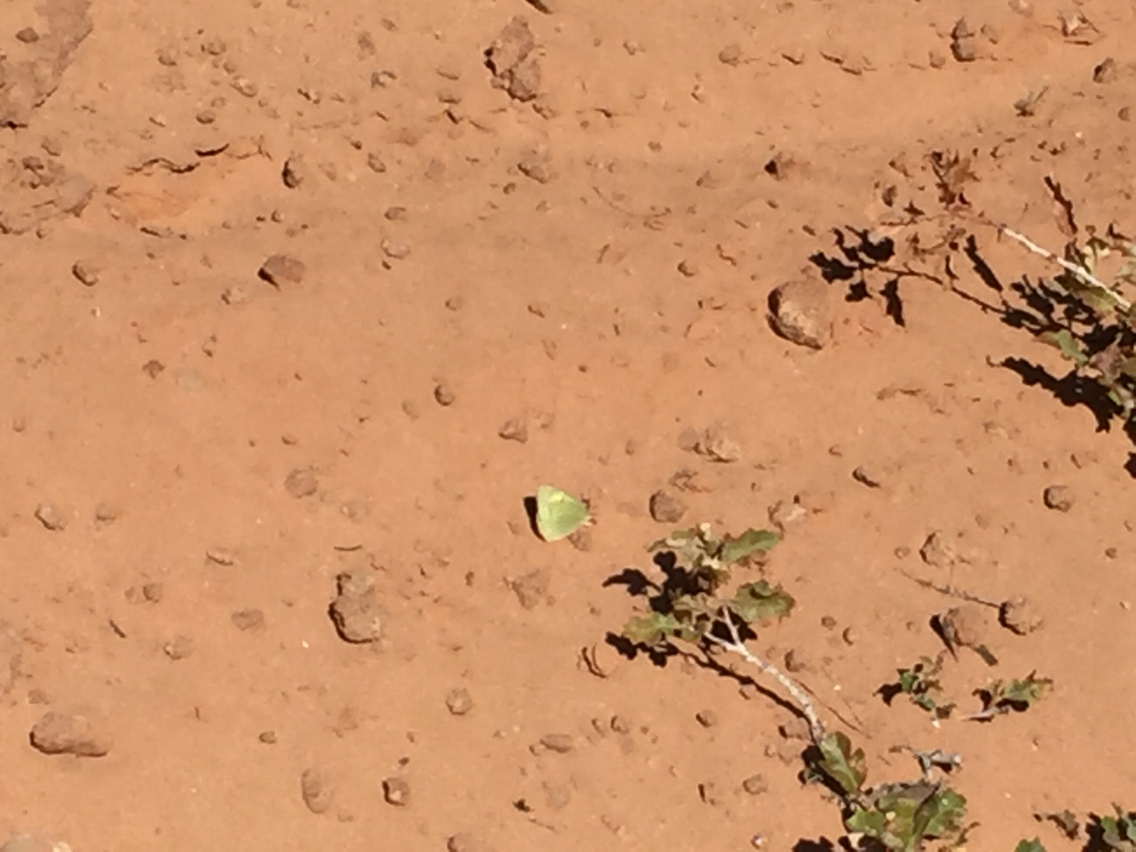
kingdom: Animalia
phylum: Arthropoda
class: Insecta
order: Lepidoptera
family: Pieridae
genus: Colias
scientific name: Colias philodice
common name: Clouded sulphur
